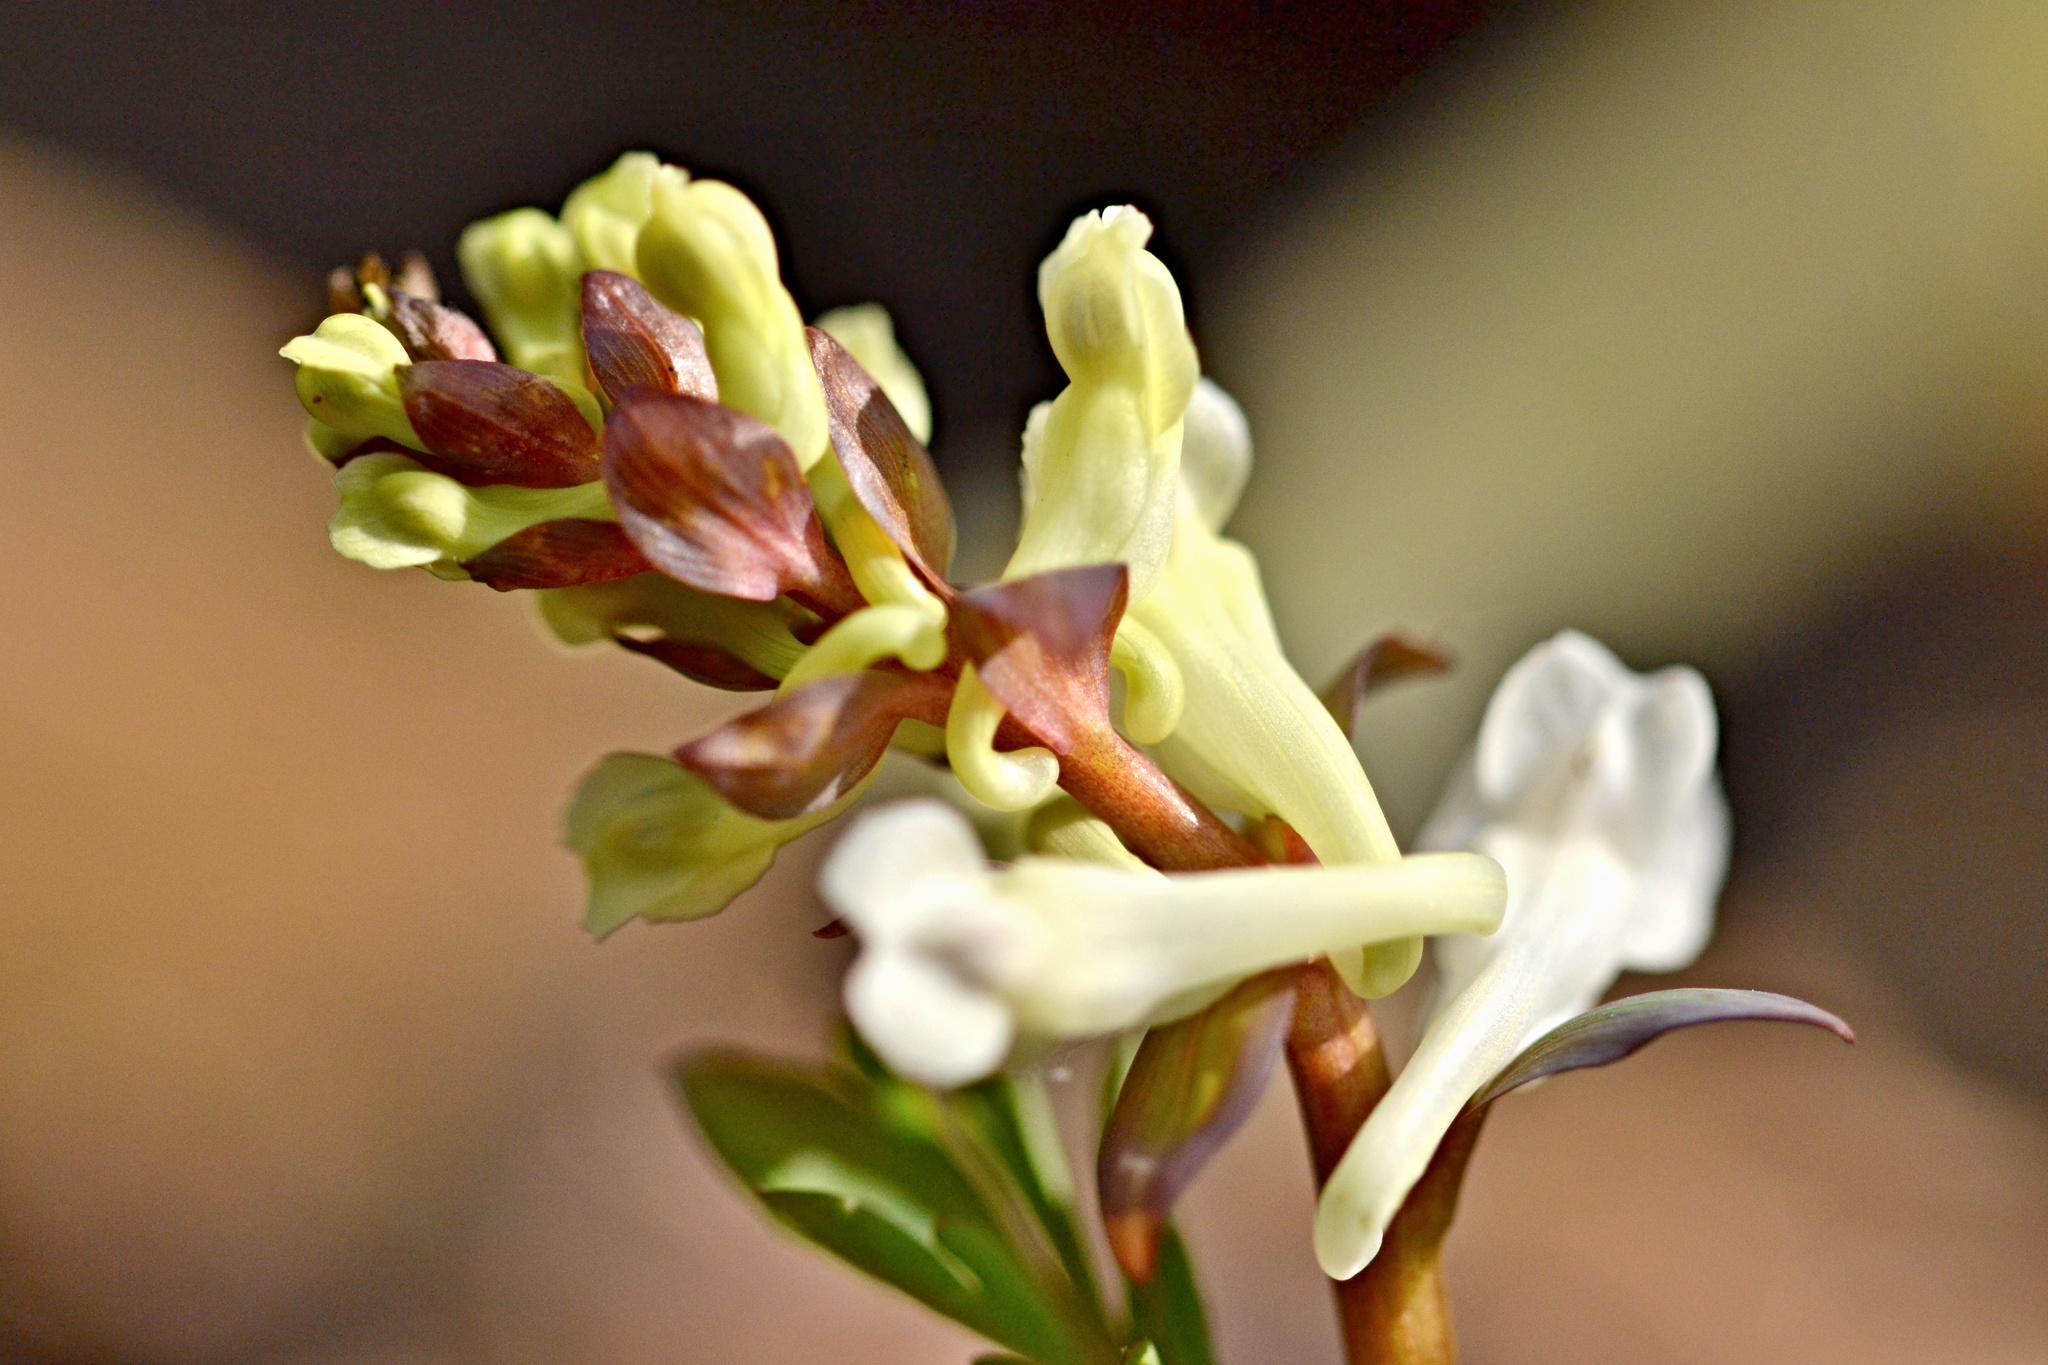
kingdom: Plantae
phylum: Tracheophyta
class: Magnoliopsida
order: Ranunculales
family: Papaveraceae
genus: Corydalis
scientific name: Corydalis cava
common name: Hollowroot
